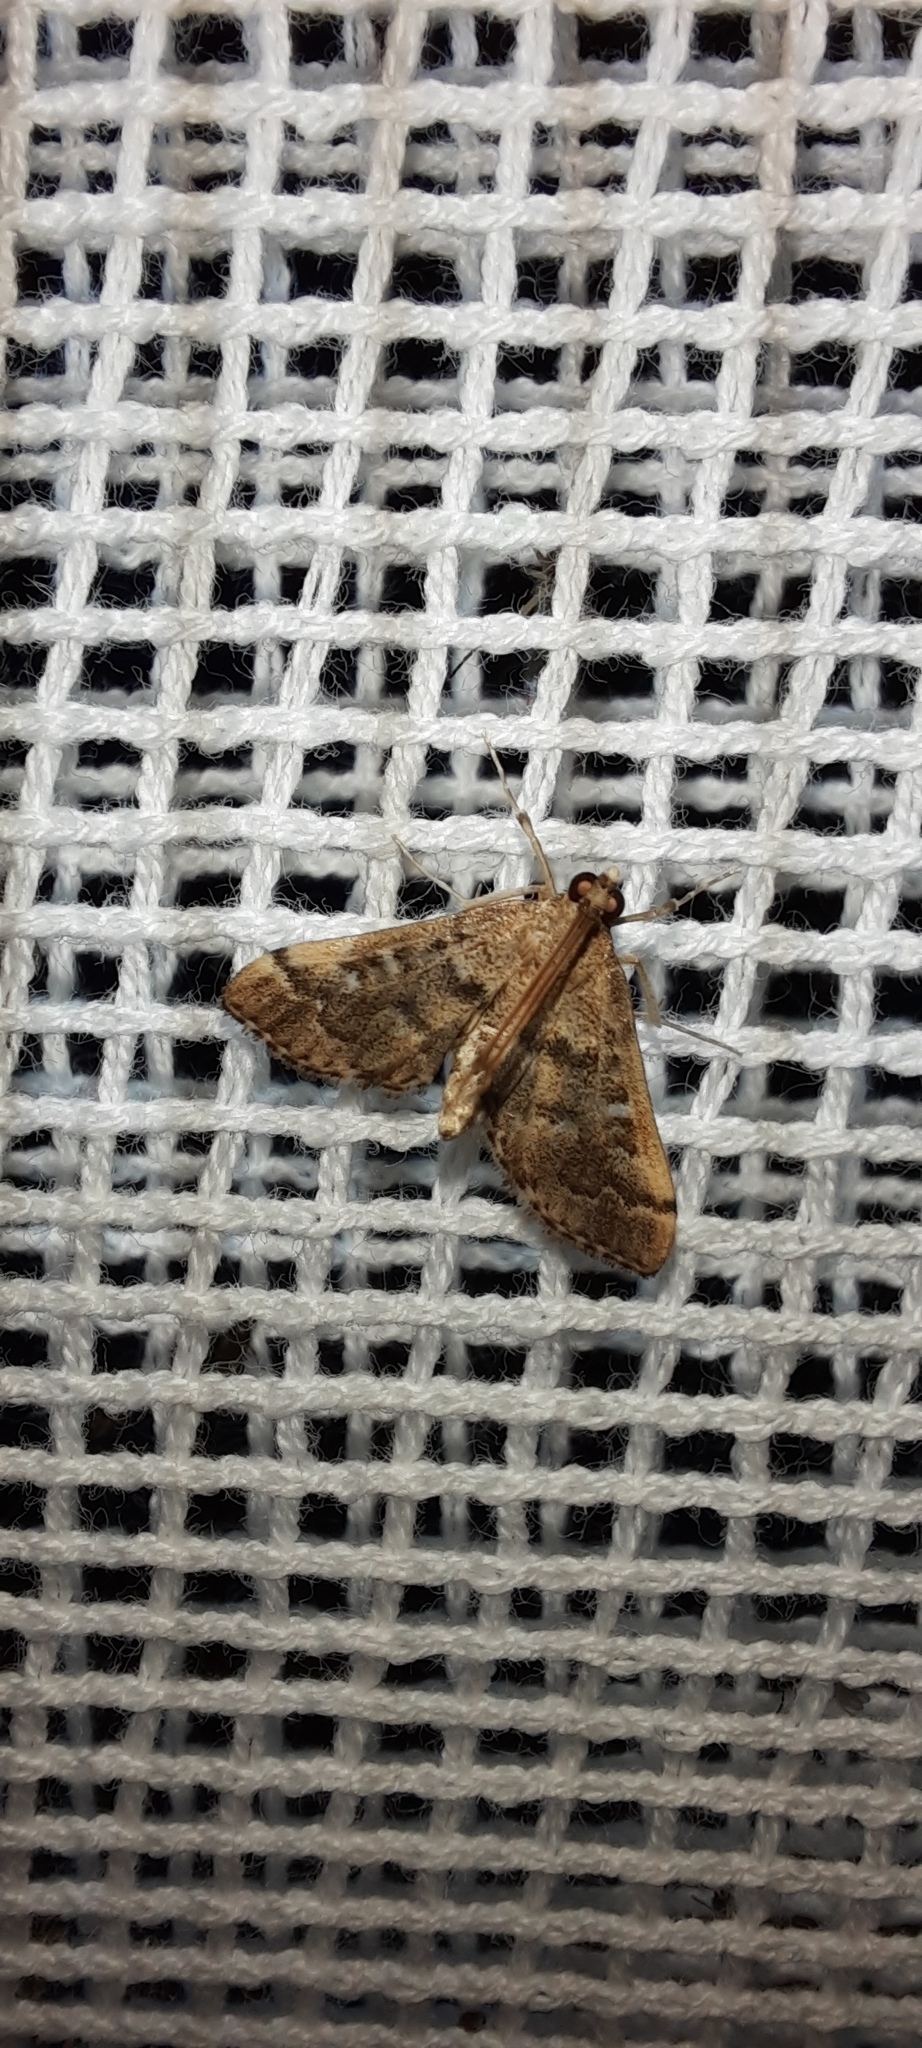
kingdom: Animalia
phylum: Arthropoda
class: Insecta
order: Lepidoptera
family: Crambidae
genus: Nacoleia
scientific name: Nacoleia rhoeoalis
